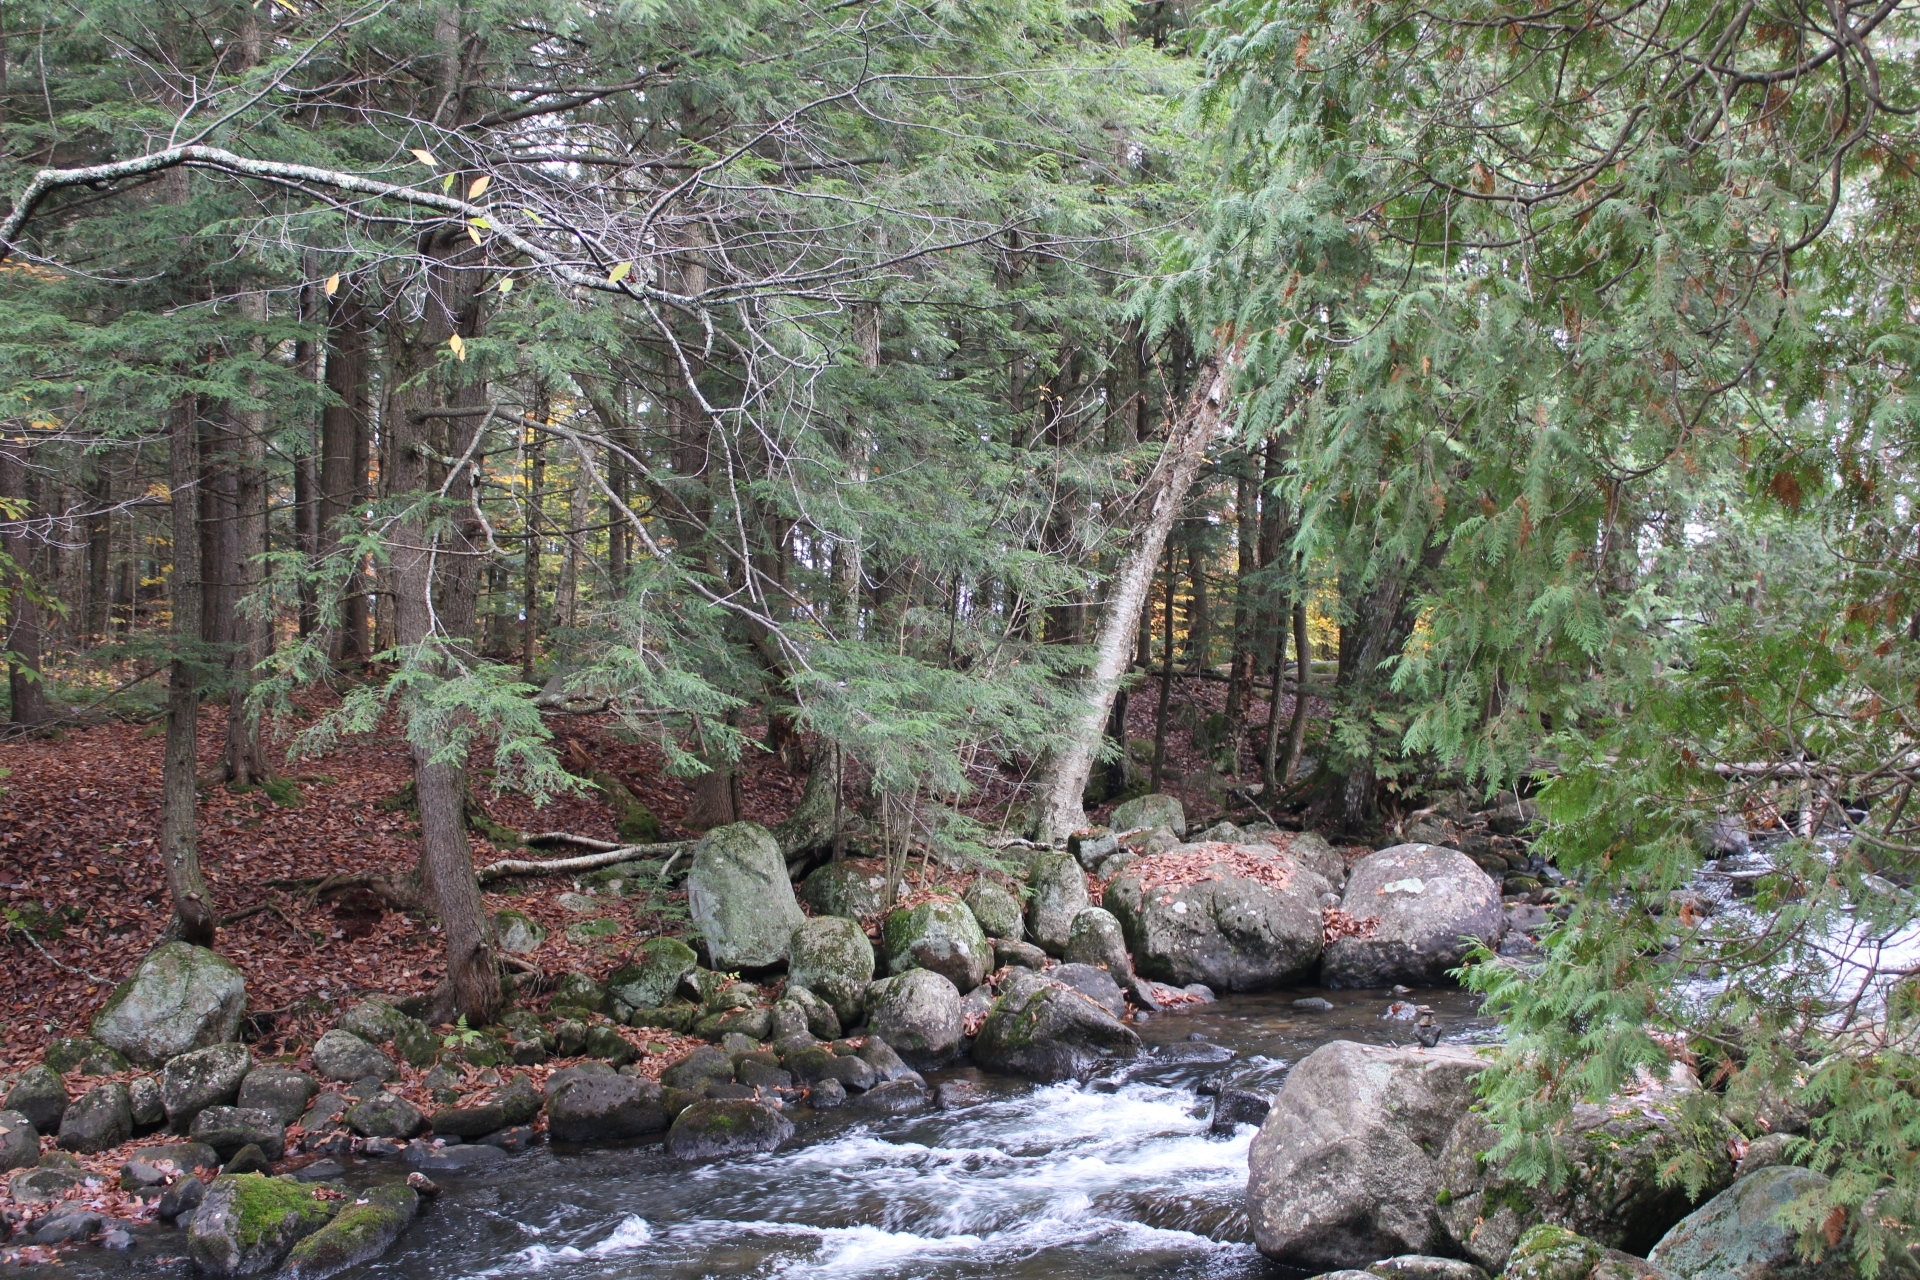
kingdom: Plantae
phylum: Tracheophyta
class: Pinopsida
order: Pinales
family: Cupressaceae
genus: Thuja
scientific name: Thuja occidentalis
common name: Northern white-cedar
